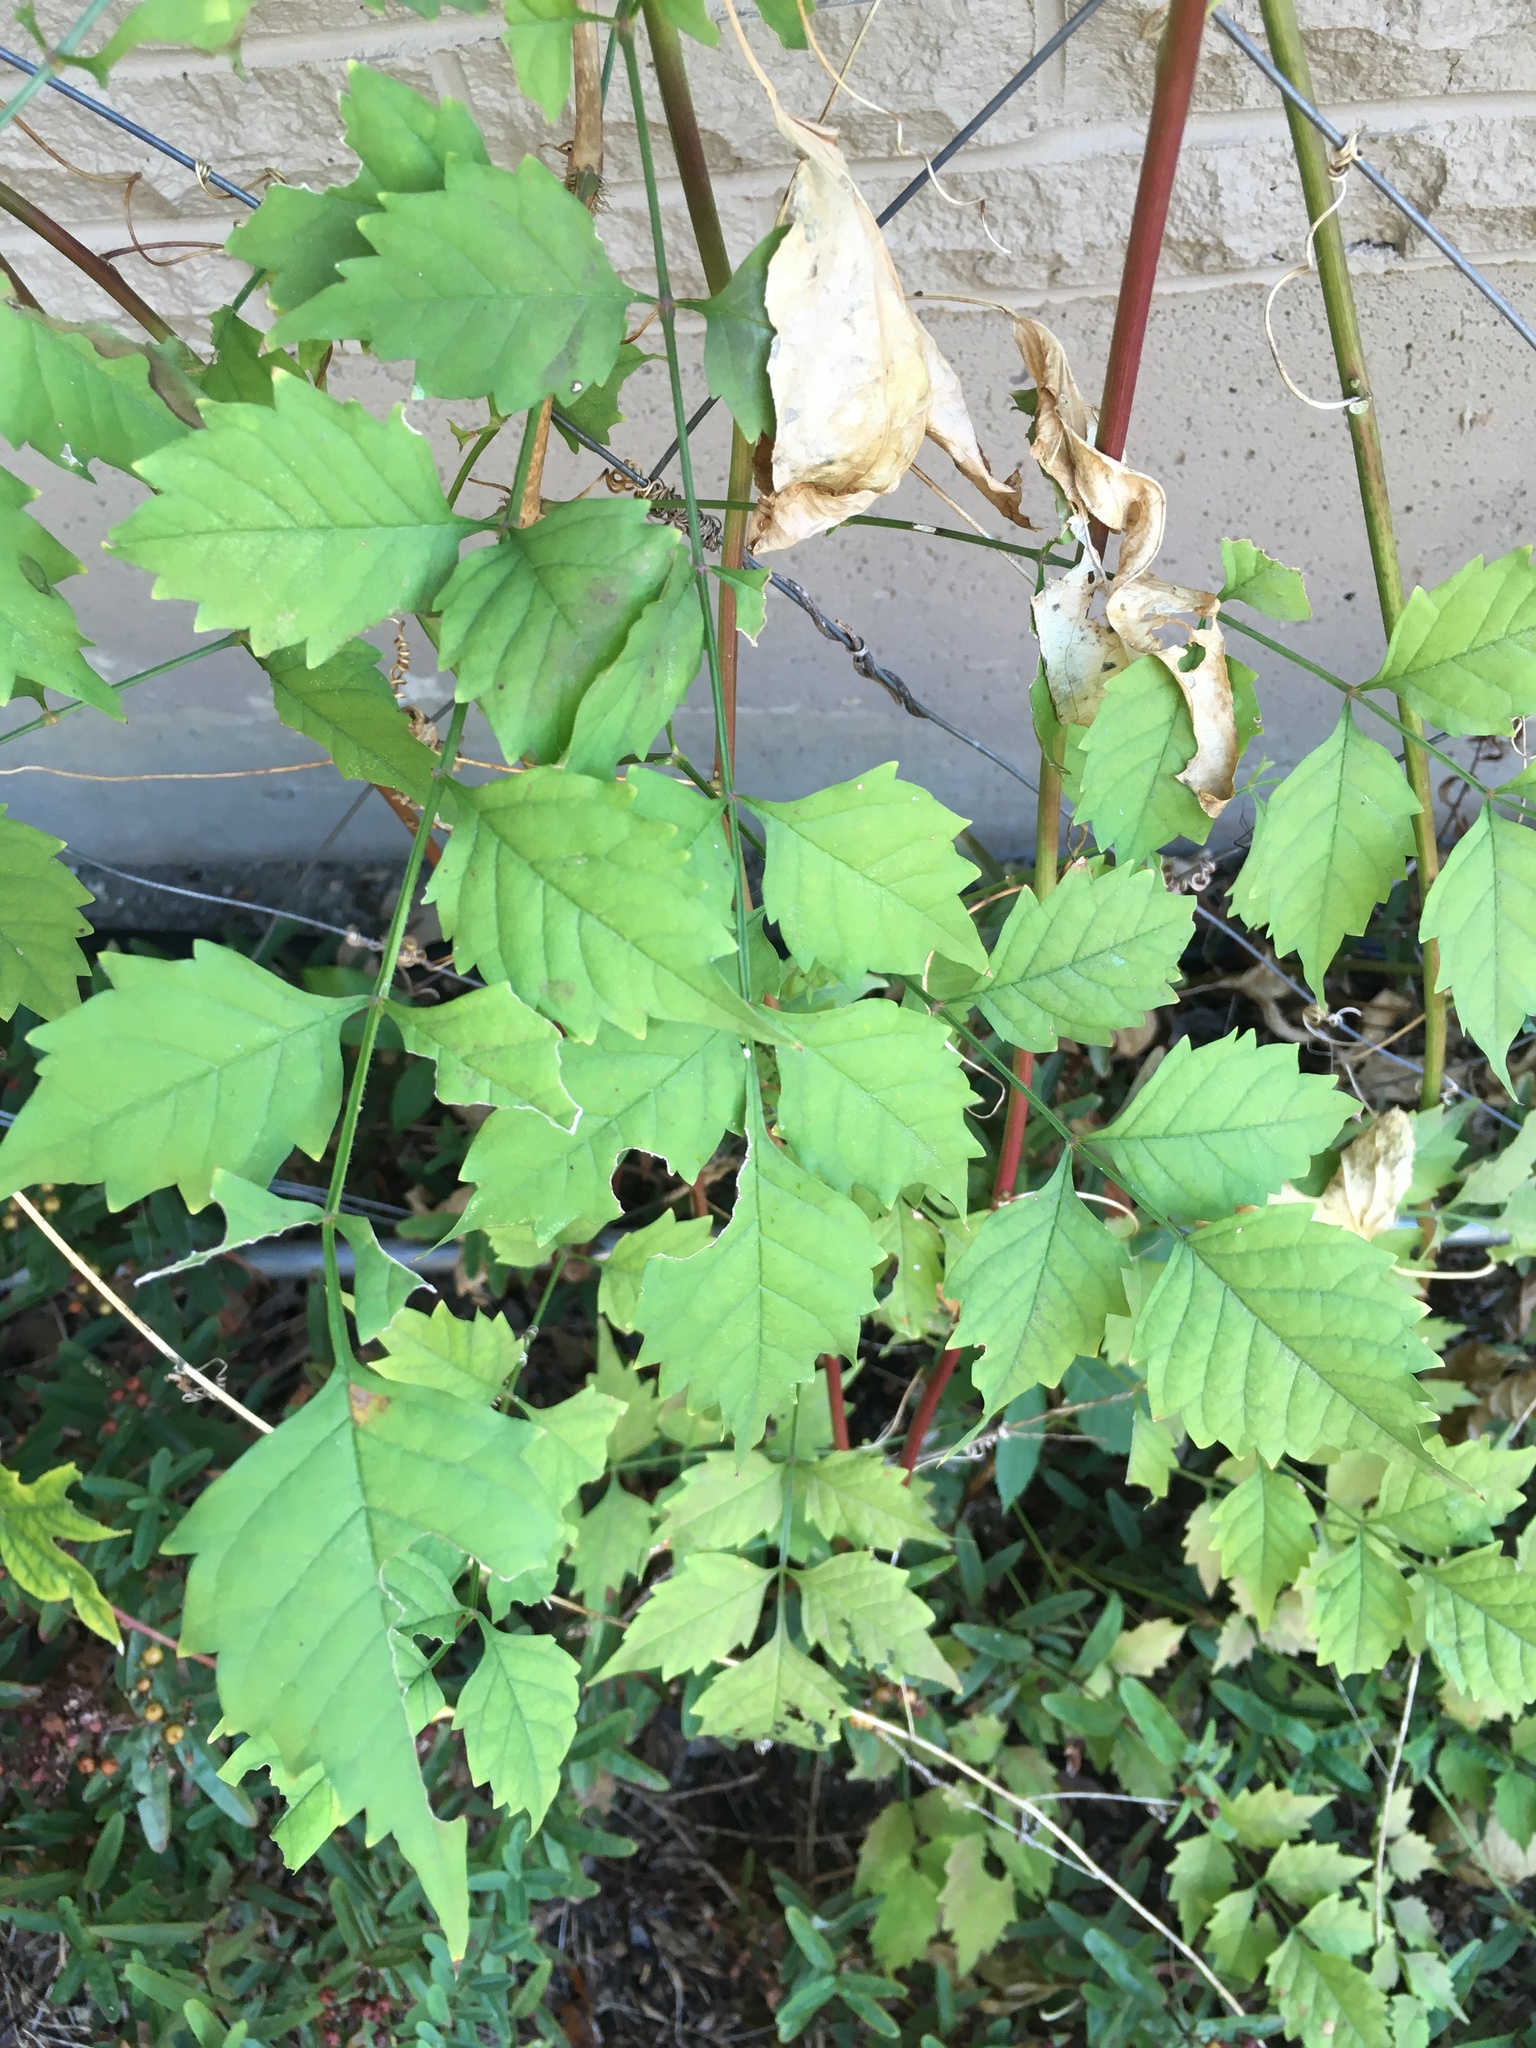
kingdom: Plantae
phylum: Tracheophyta
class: Magnoliopsida
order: Lamiales
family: Bignoniaceae
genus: Campsis
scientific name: Campsis radicans
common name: Trumpet-creeper
